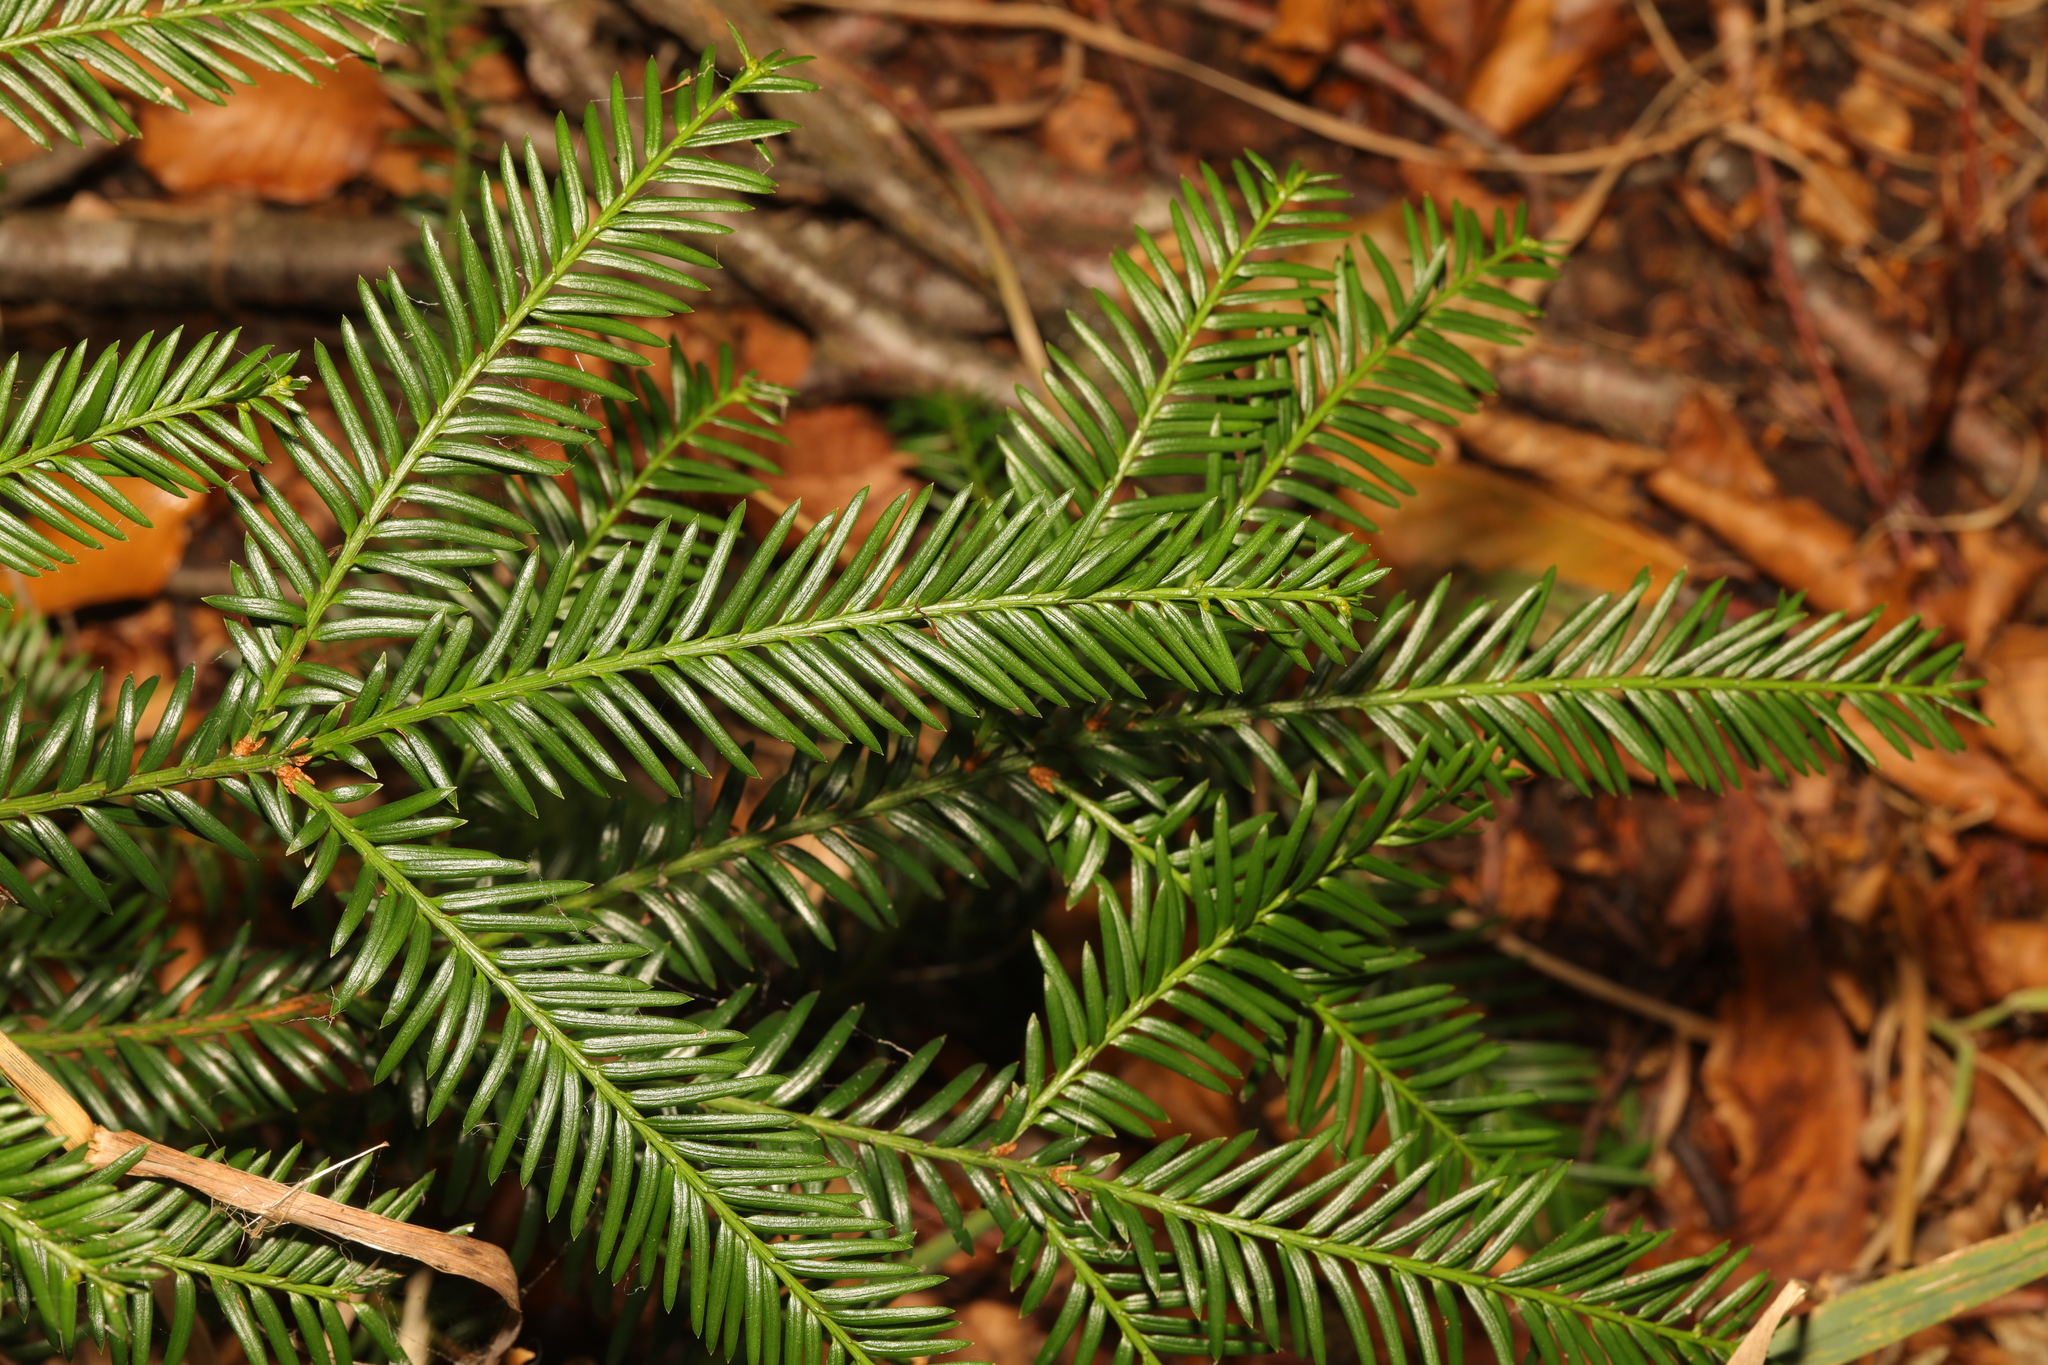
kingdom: Plantae
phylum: Tracheophyta
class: Pinopsida
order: Pinales
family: Taxaceae
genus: Taxus
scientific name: Taxus baccata
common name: Yew
